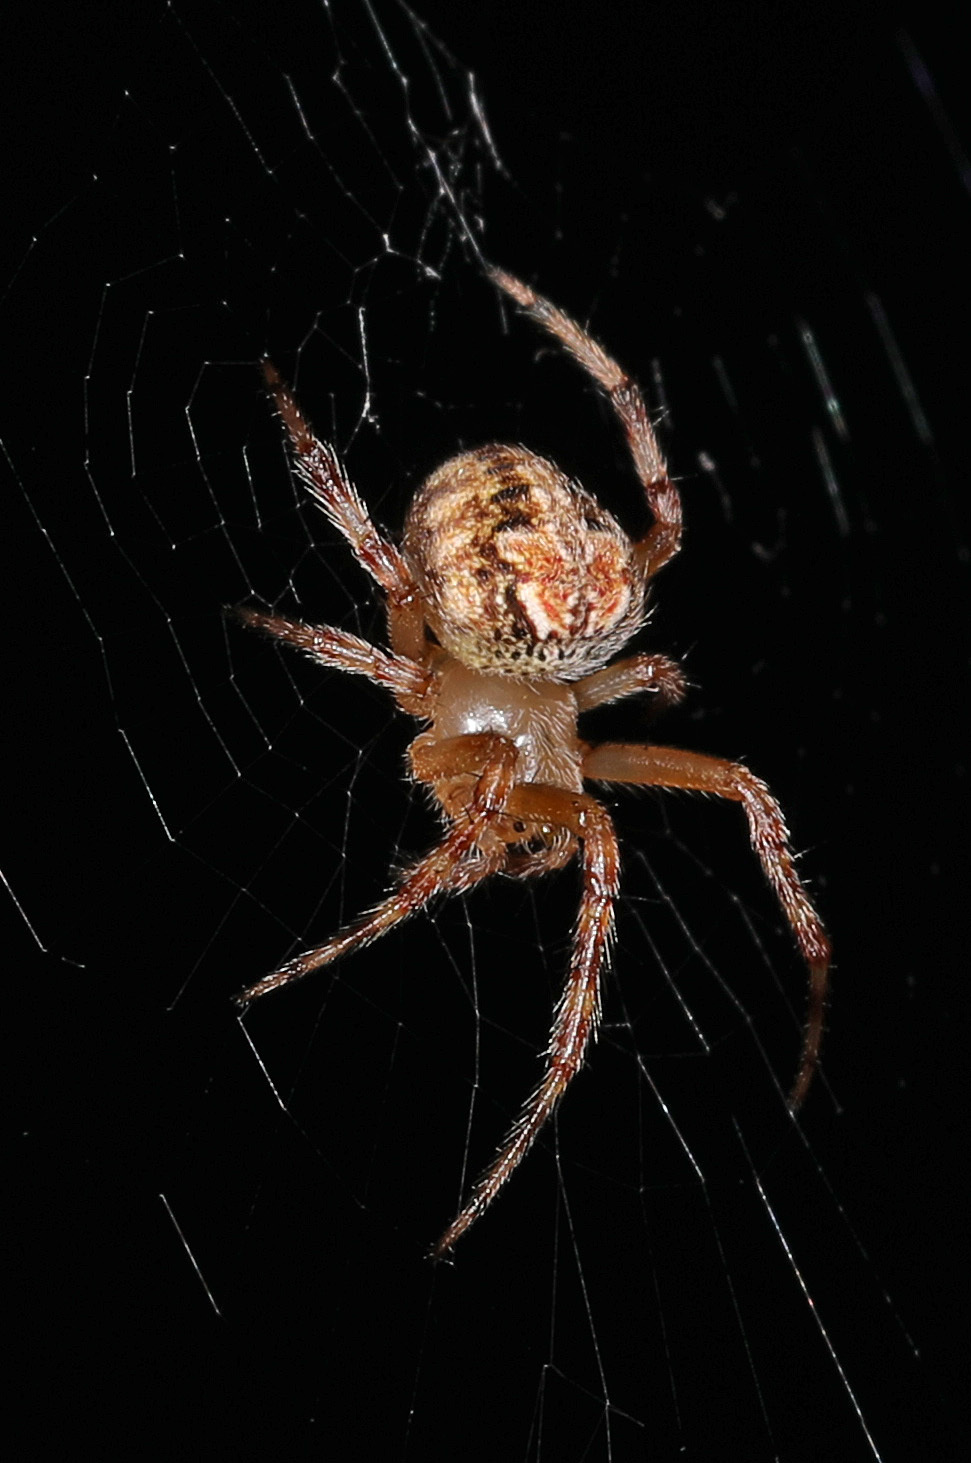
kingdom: Animalia
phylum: Arthropoda
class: Arachnida
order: Araneae
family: Araneidae
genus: Araneus
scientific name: Araneus pegnia
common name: Orb weavers
